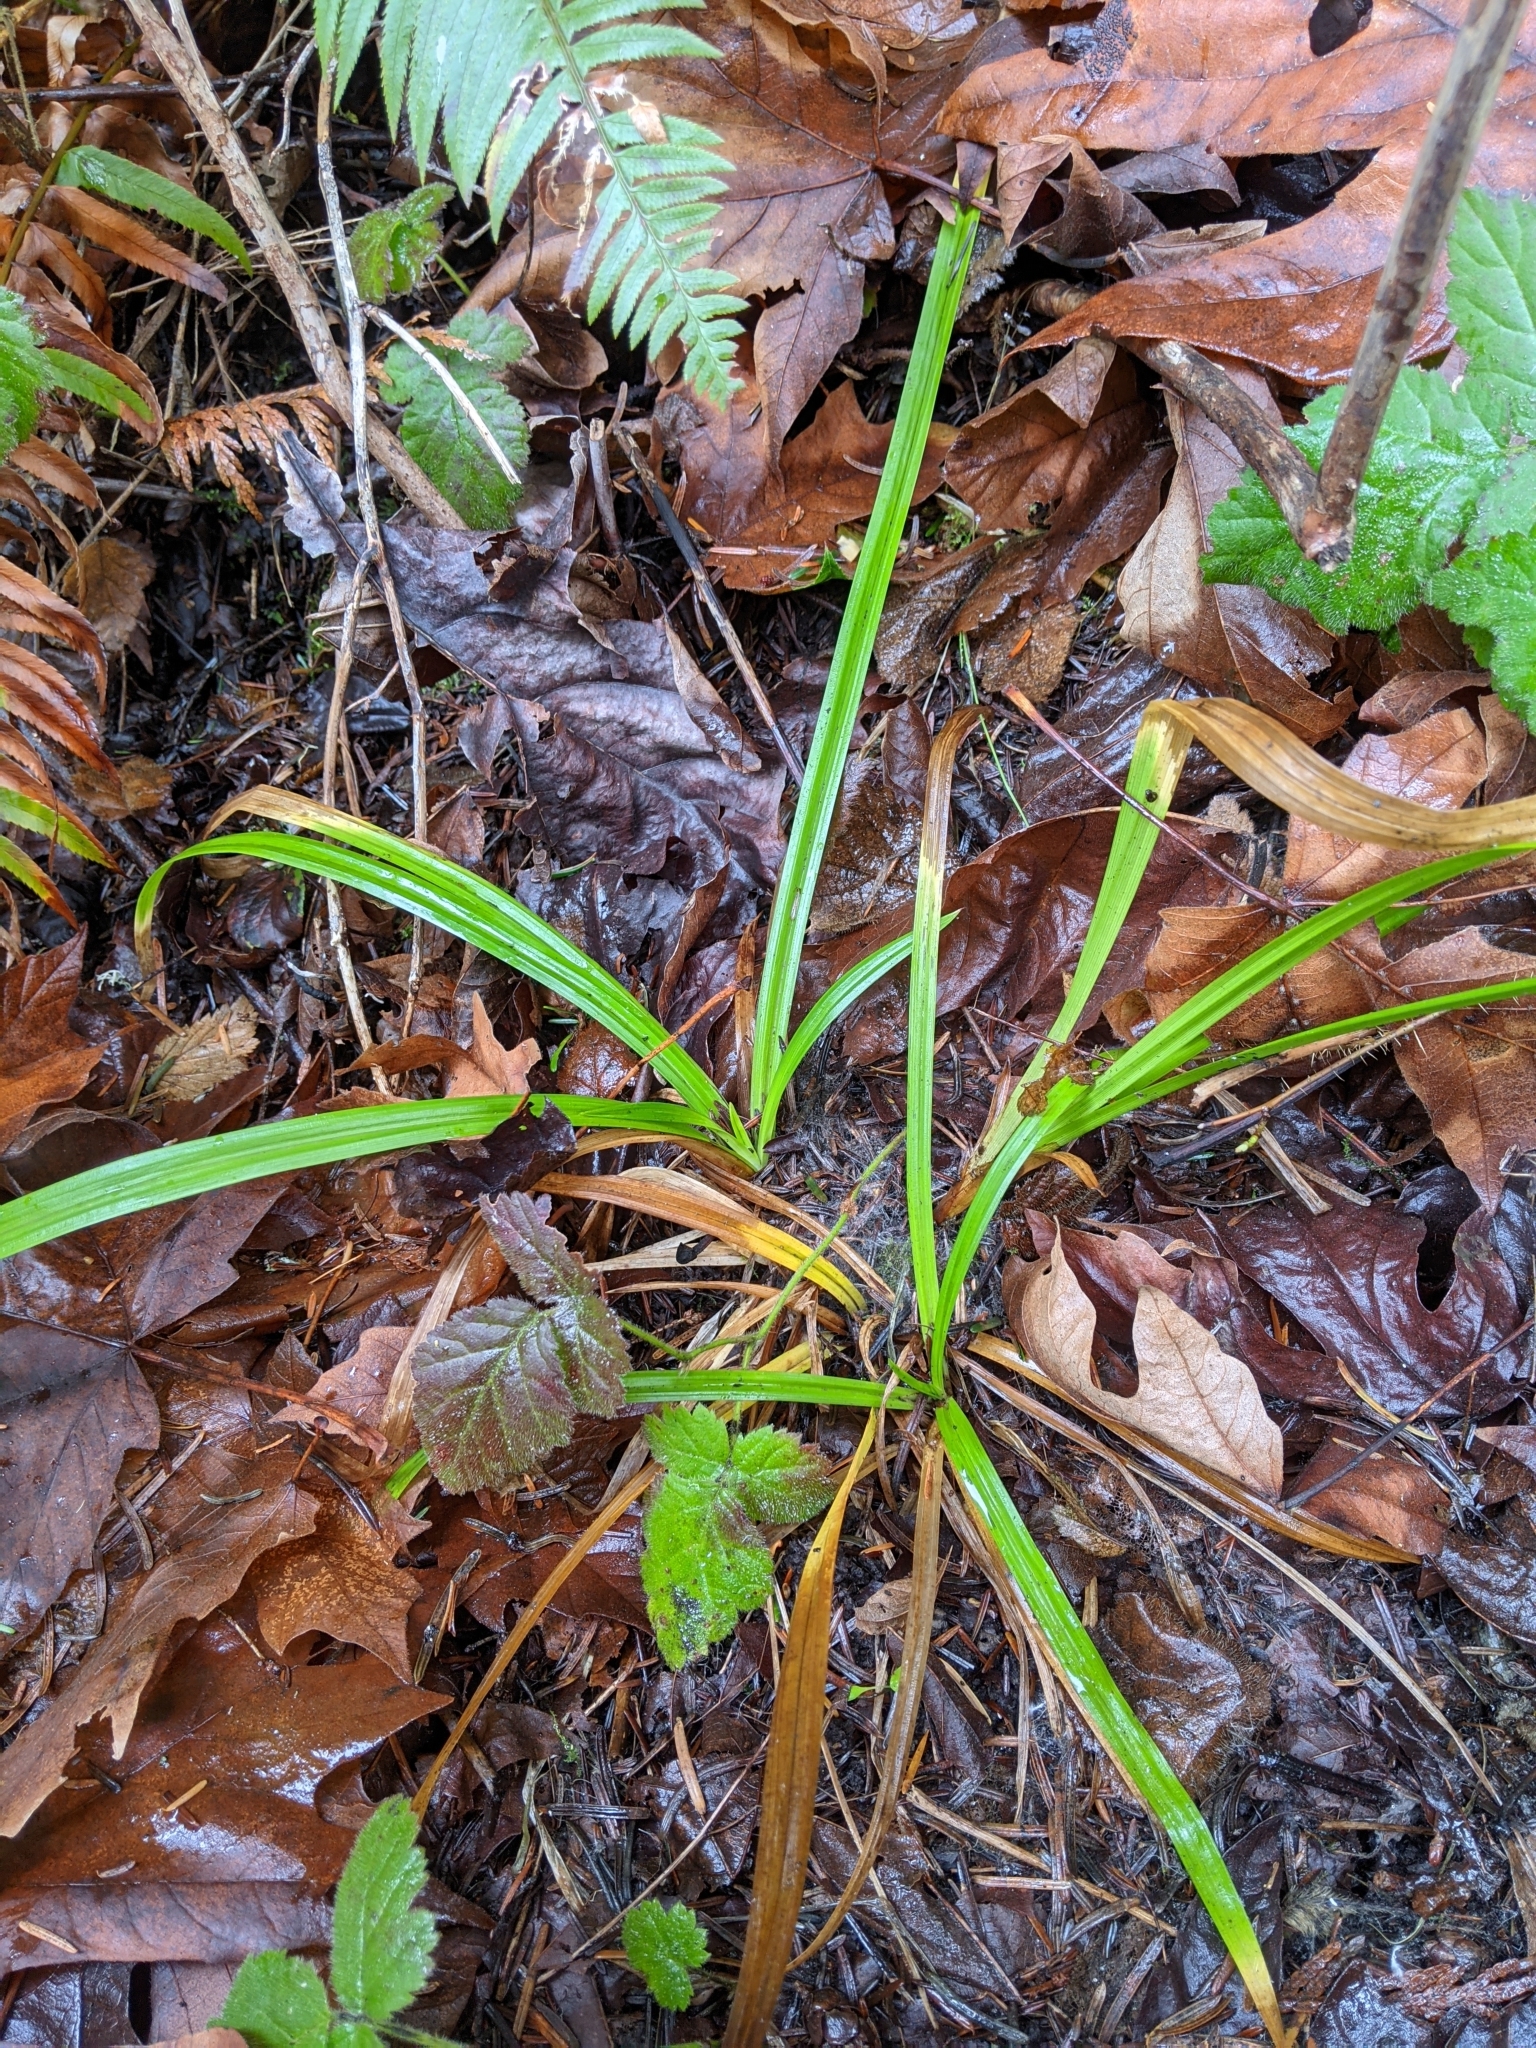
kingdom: Plantae
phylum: Tracheophyta
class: Liliopsida
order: Poales
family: Cyperaceae
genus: Carex
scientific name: Carex hendersonii
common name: Henderson's sedge
